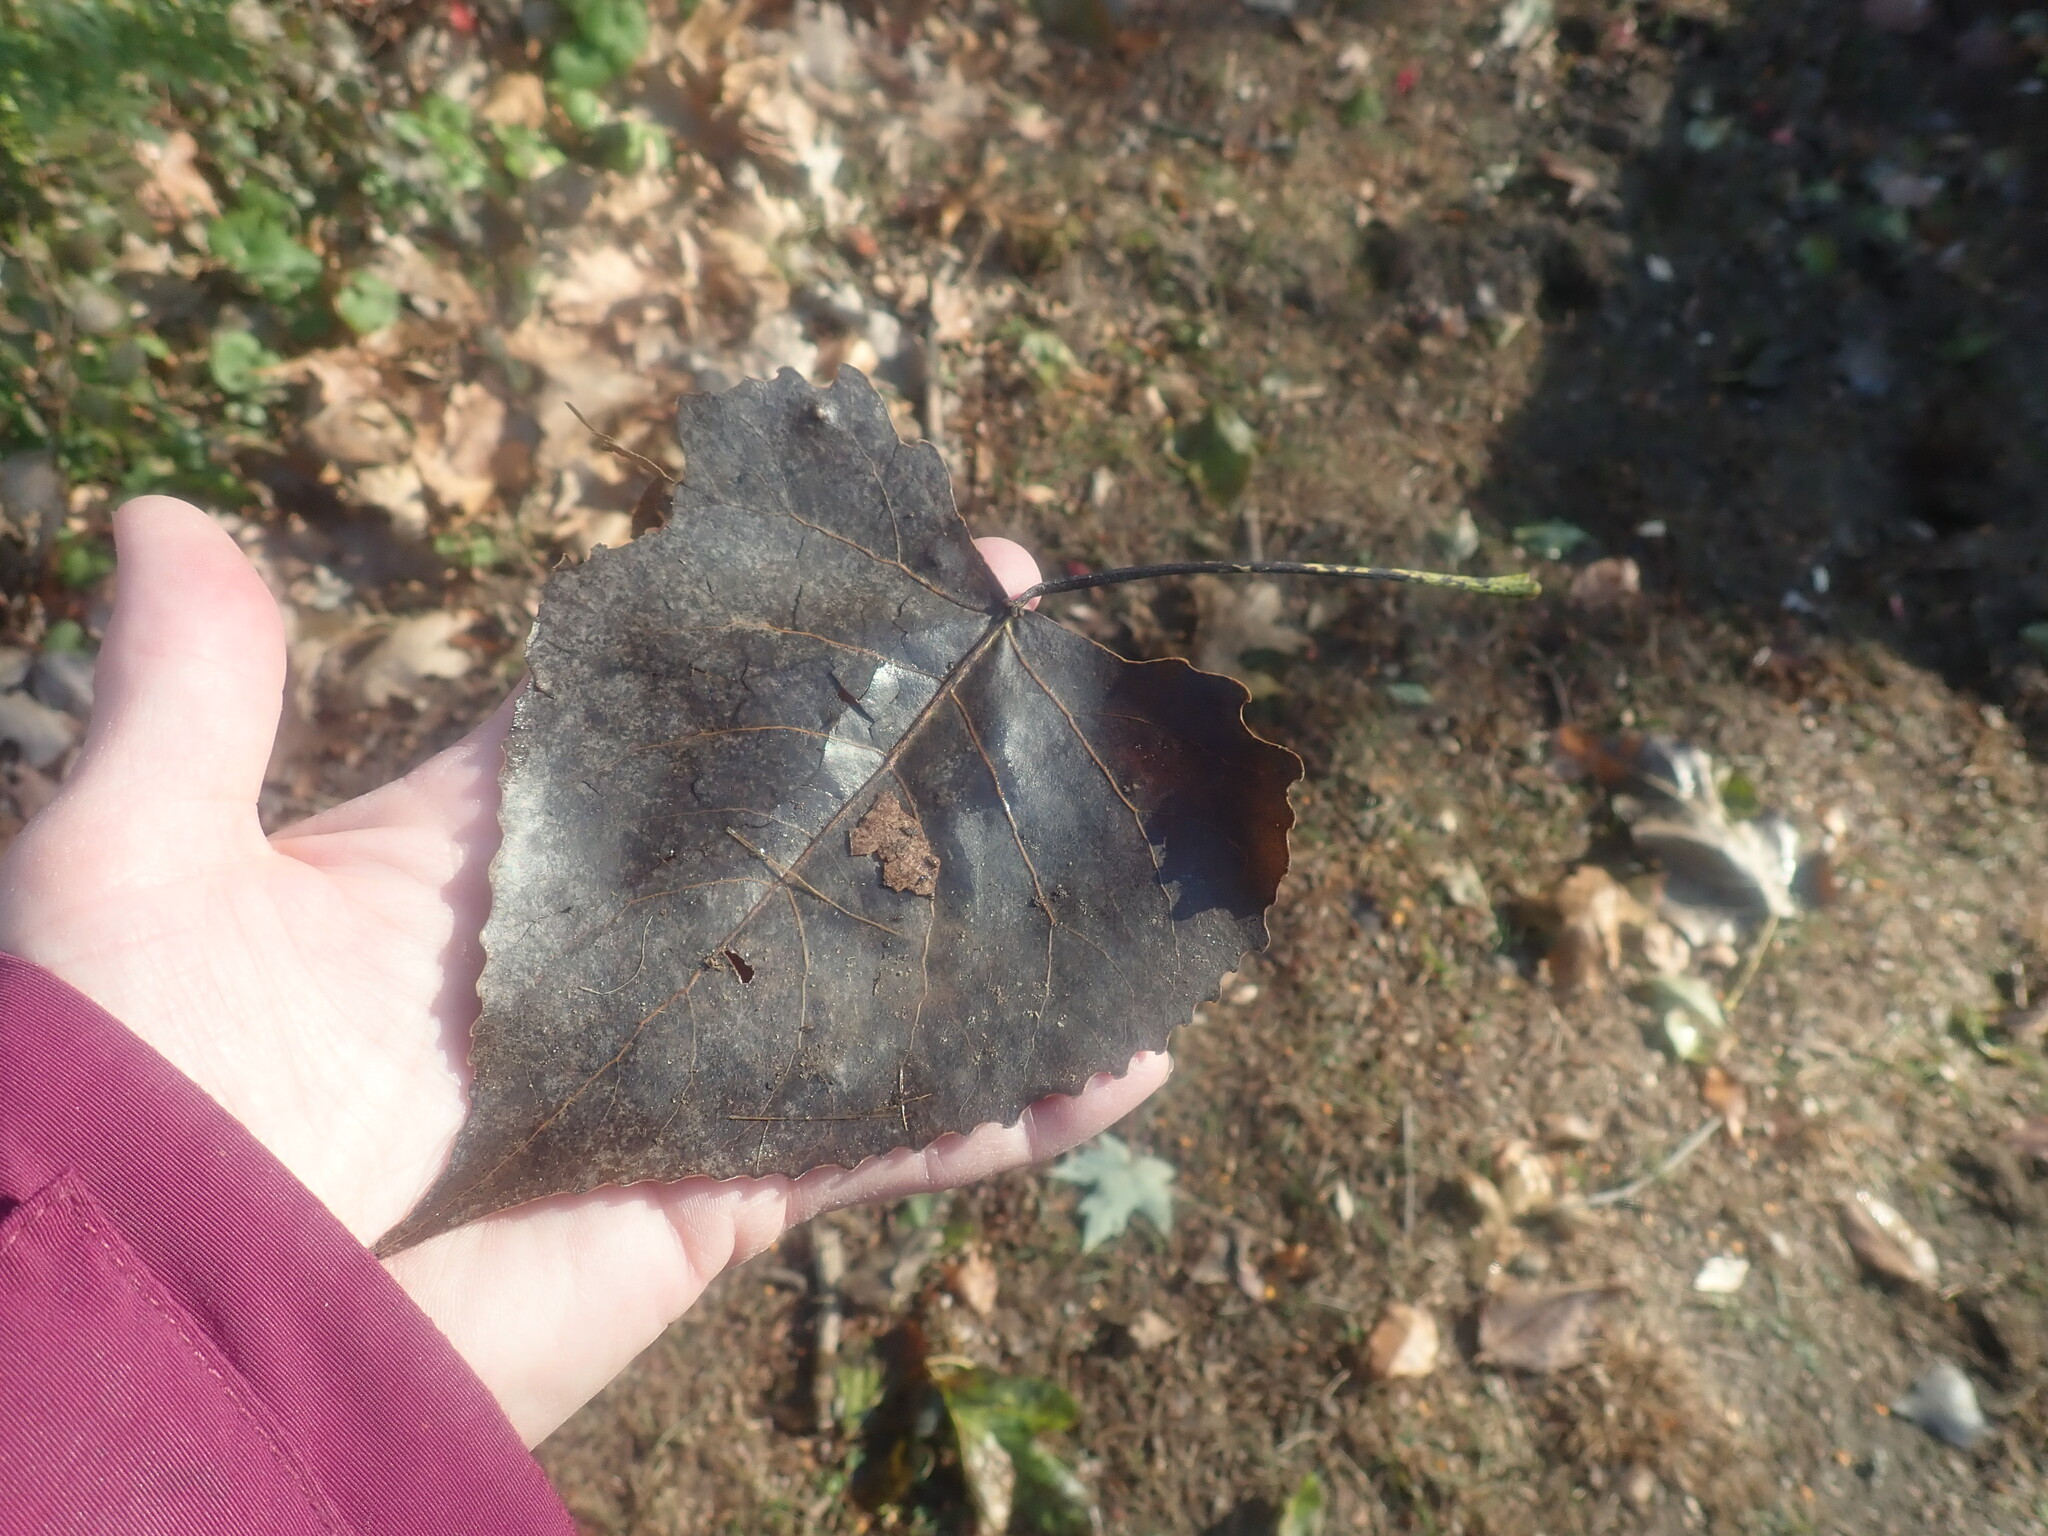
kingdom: Plantae
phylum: Tracheophyta
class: Magnoliopsida
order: Malpighiales
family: Salicaceae
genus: Populus
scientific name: Populus deltoides
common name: Eastern cottonwood
